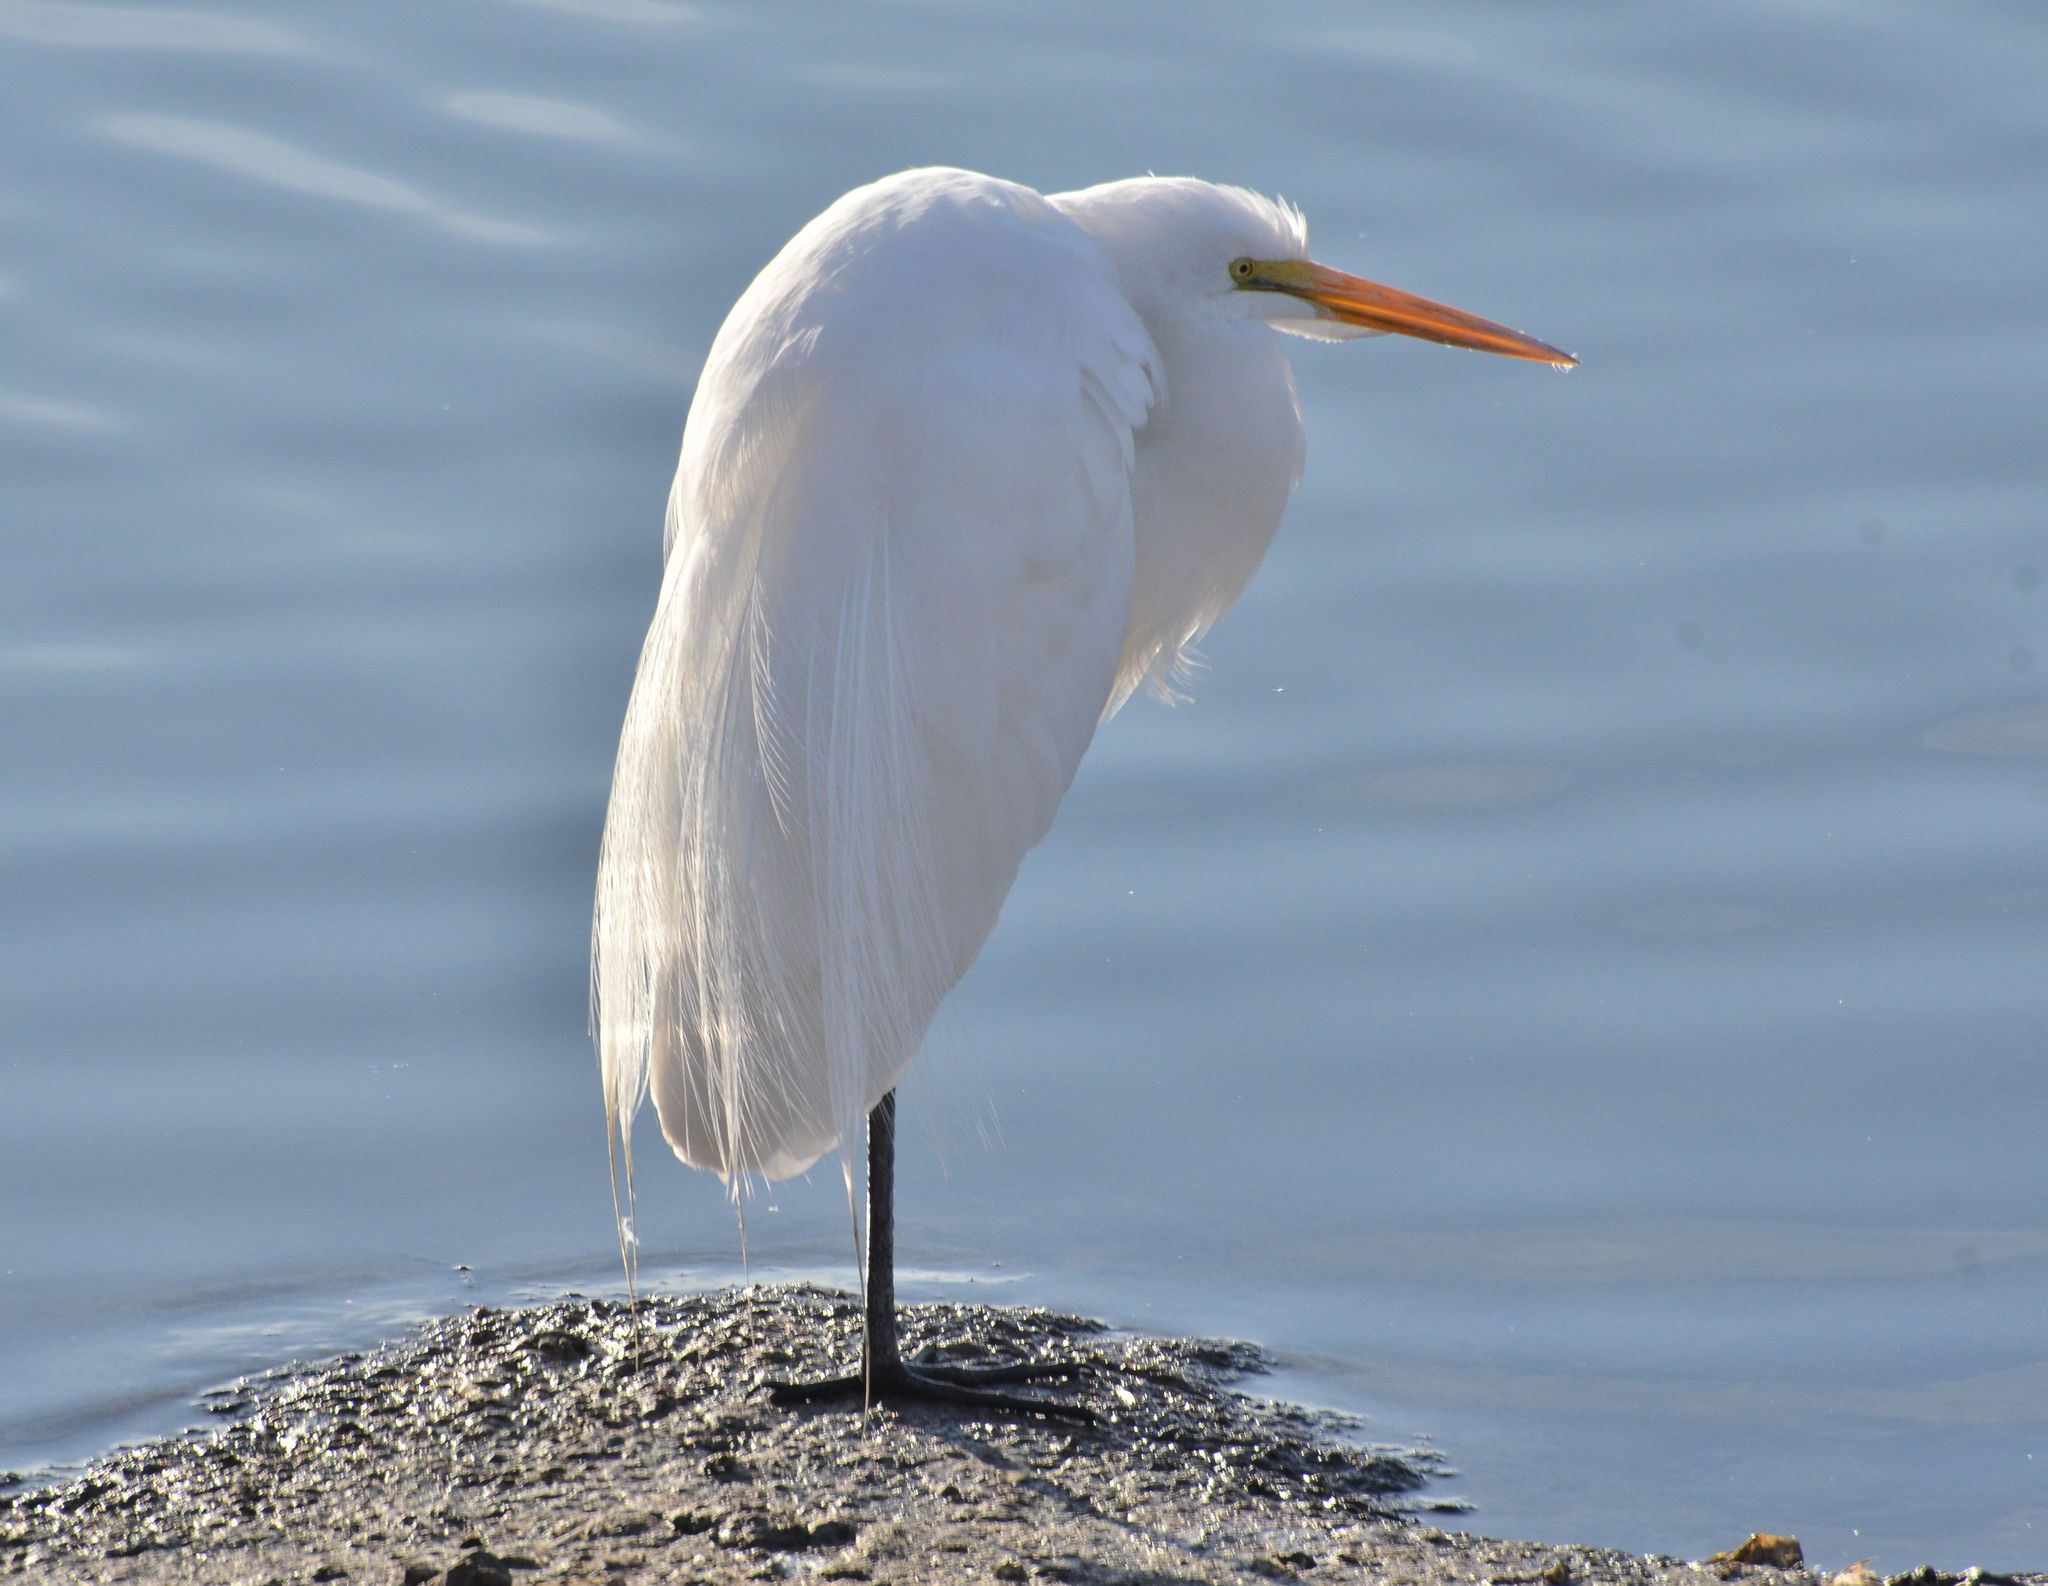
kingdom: Animalia
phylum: Chordata
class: Aves
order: Pelecaniformes
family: Ardeidae
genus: Ardea
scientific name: Ardea alba
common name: Great egret
